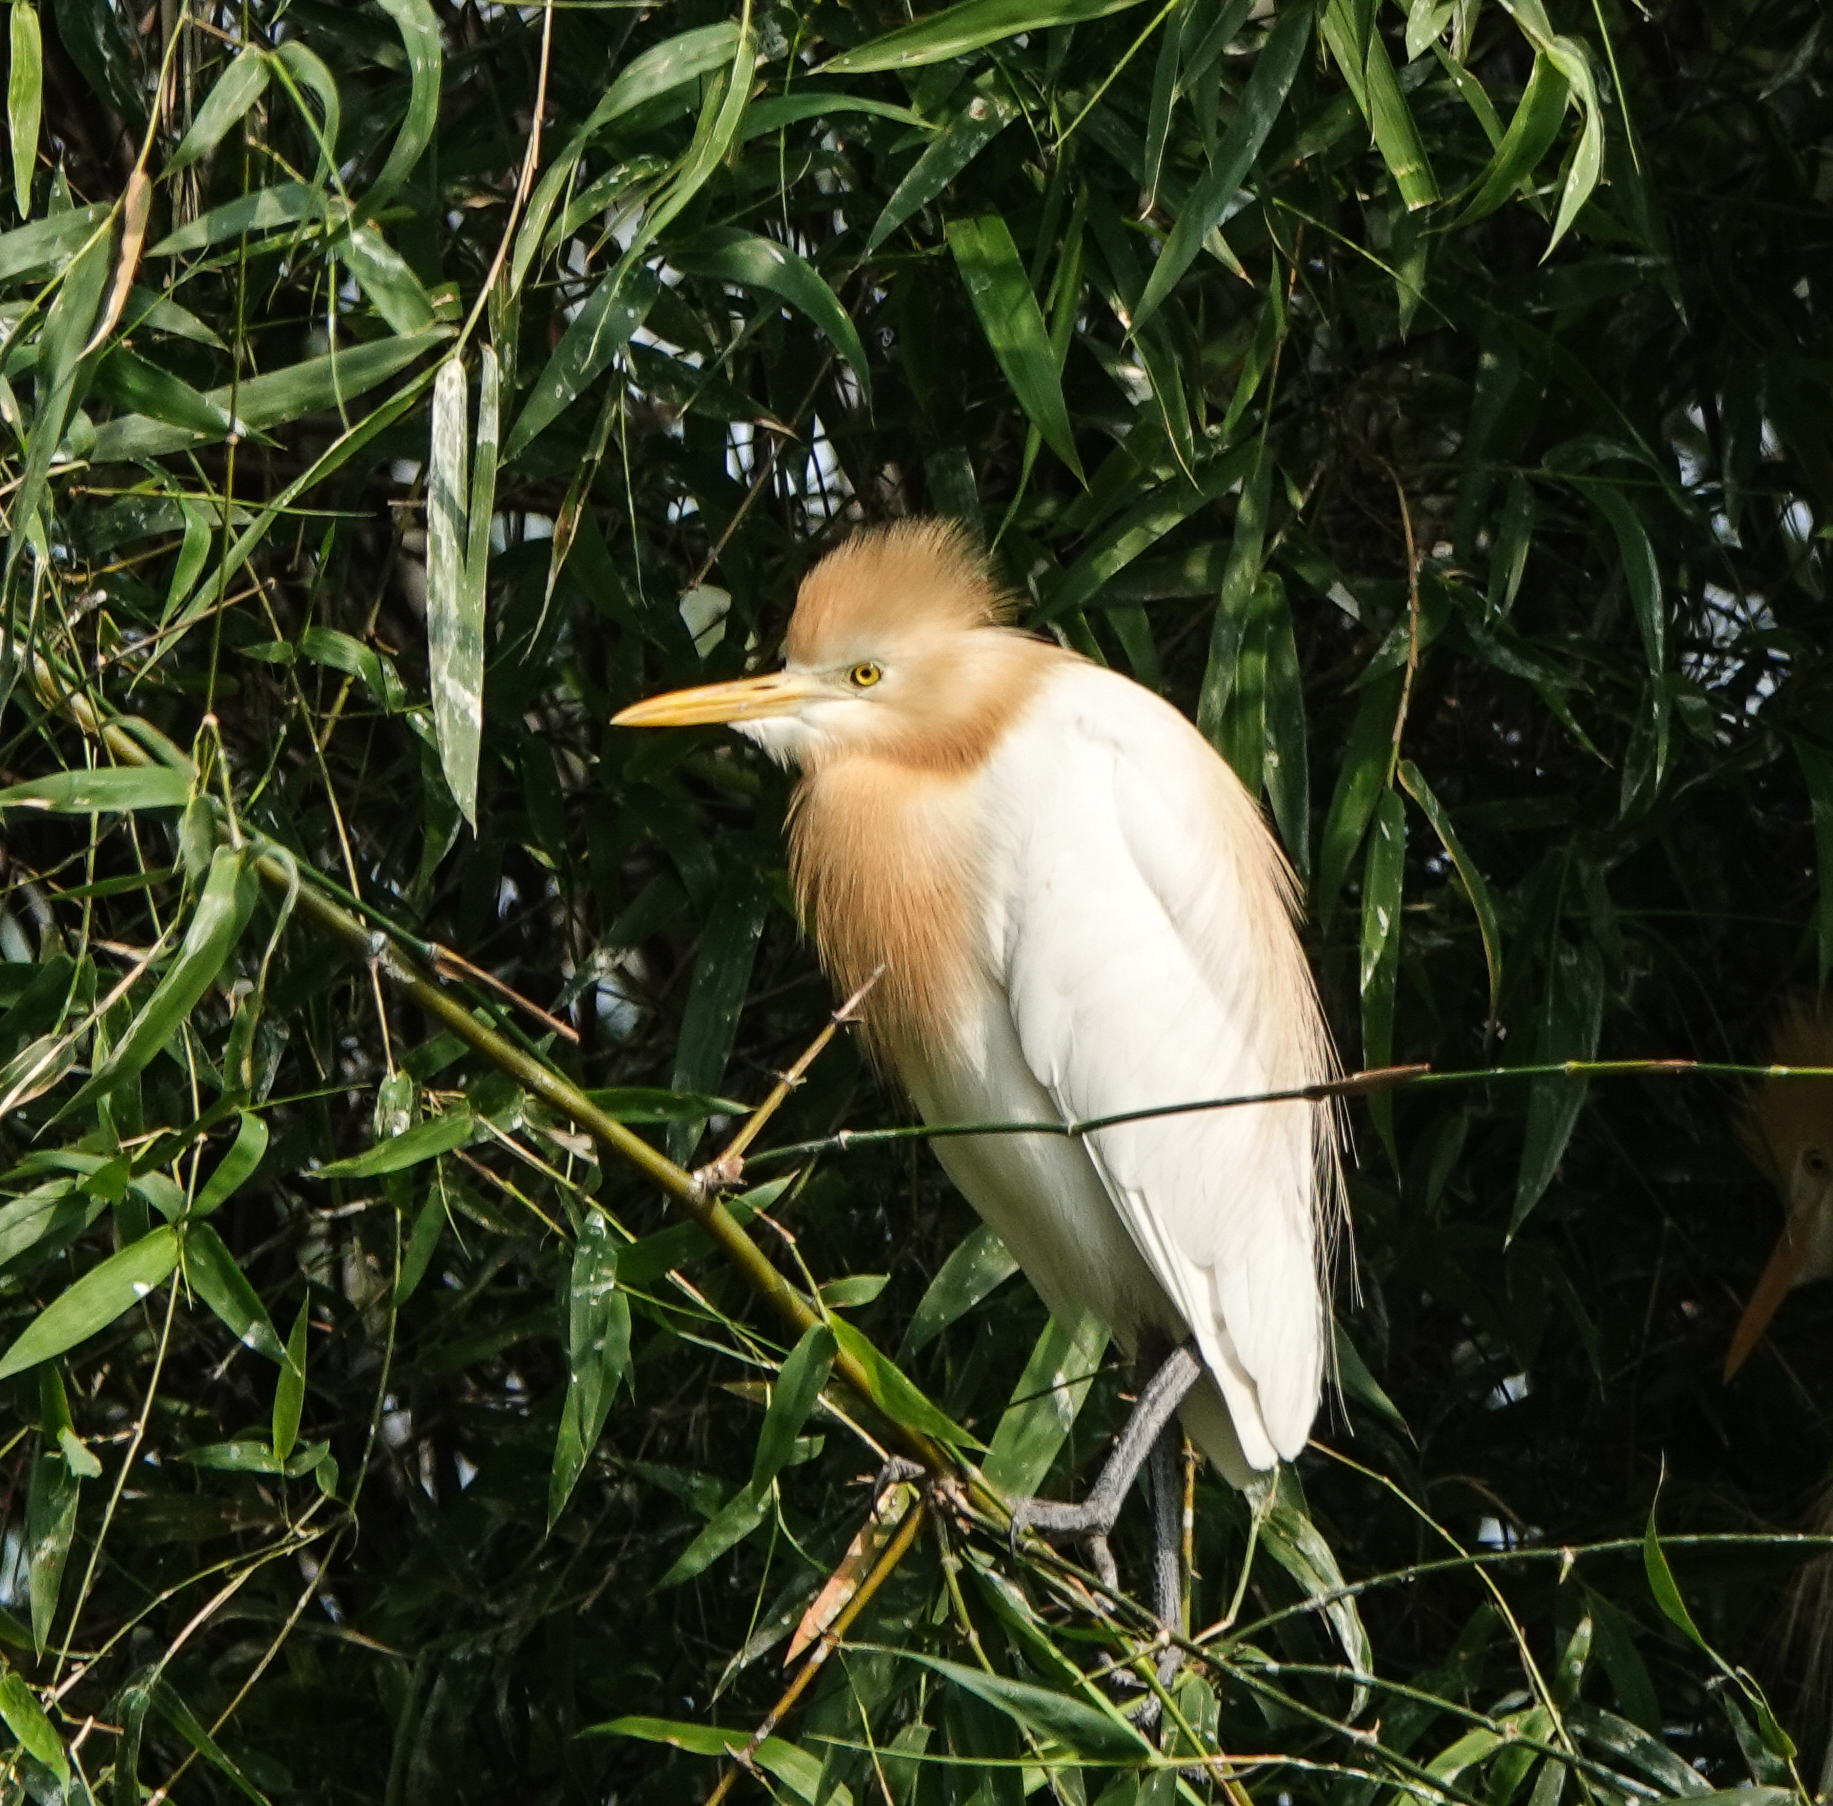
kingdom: Animalia
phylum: Chordata
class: Aves
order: Pelecaniformes
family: Ardeidae
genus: Bubulcus
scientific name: Bubulcus coromandus
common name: Eastern cattle egret
